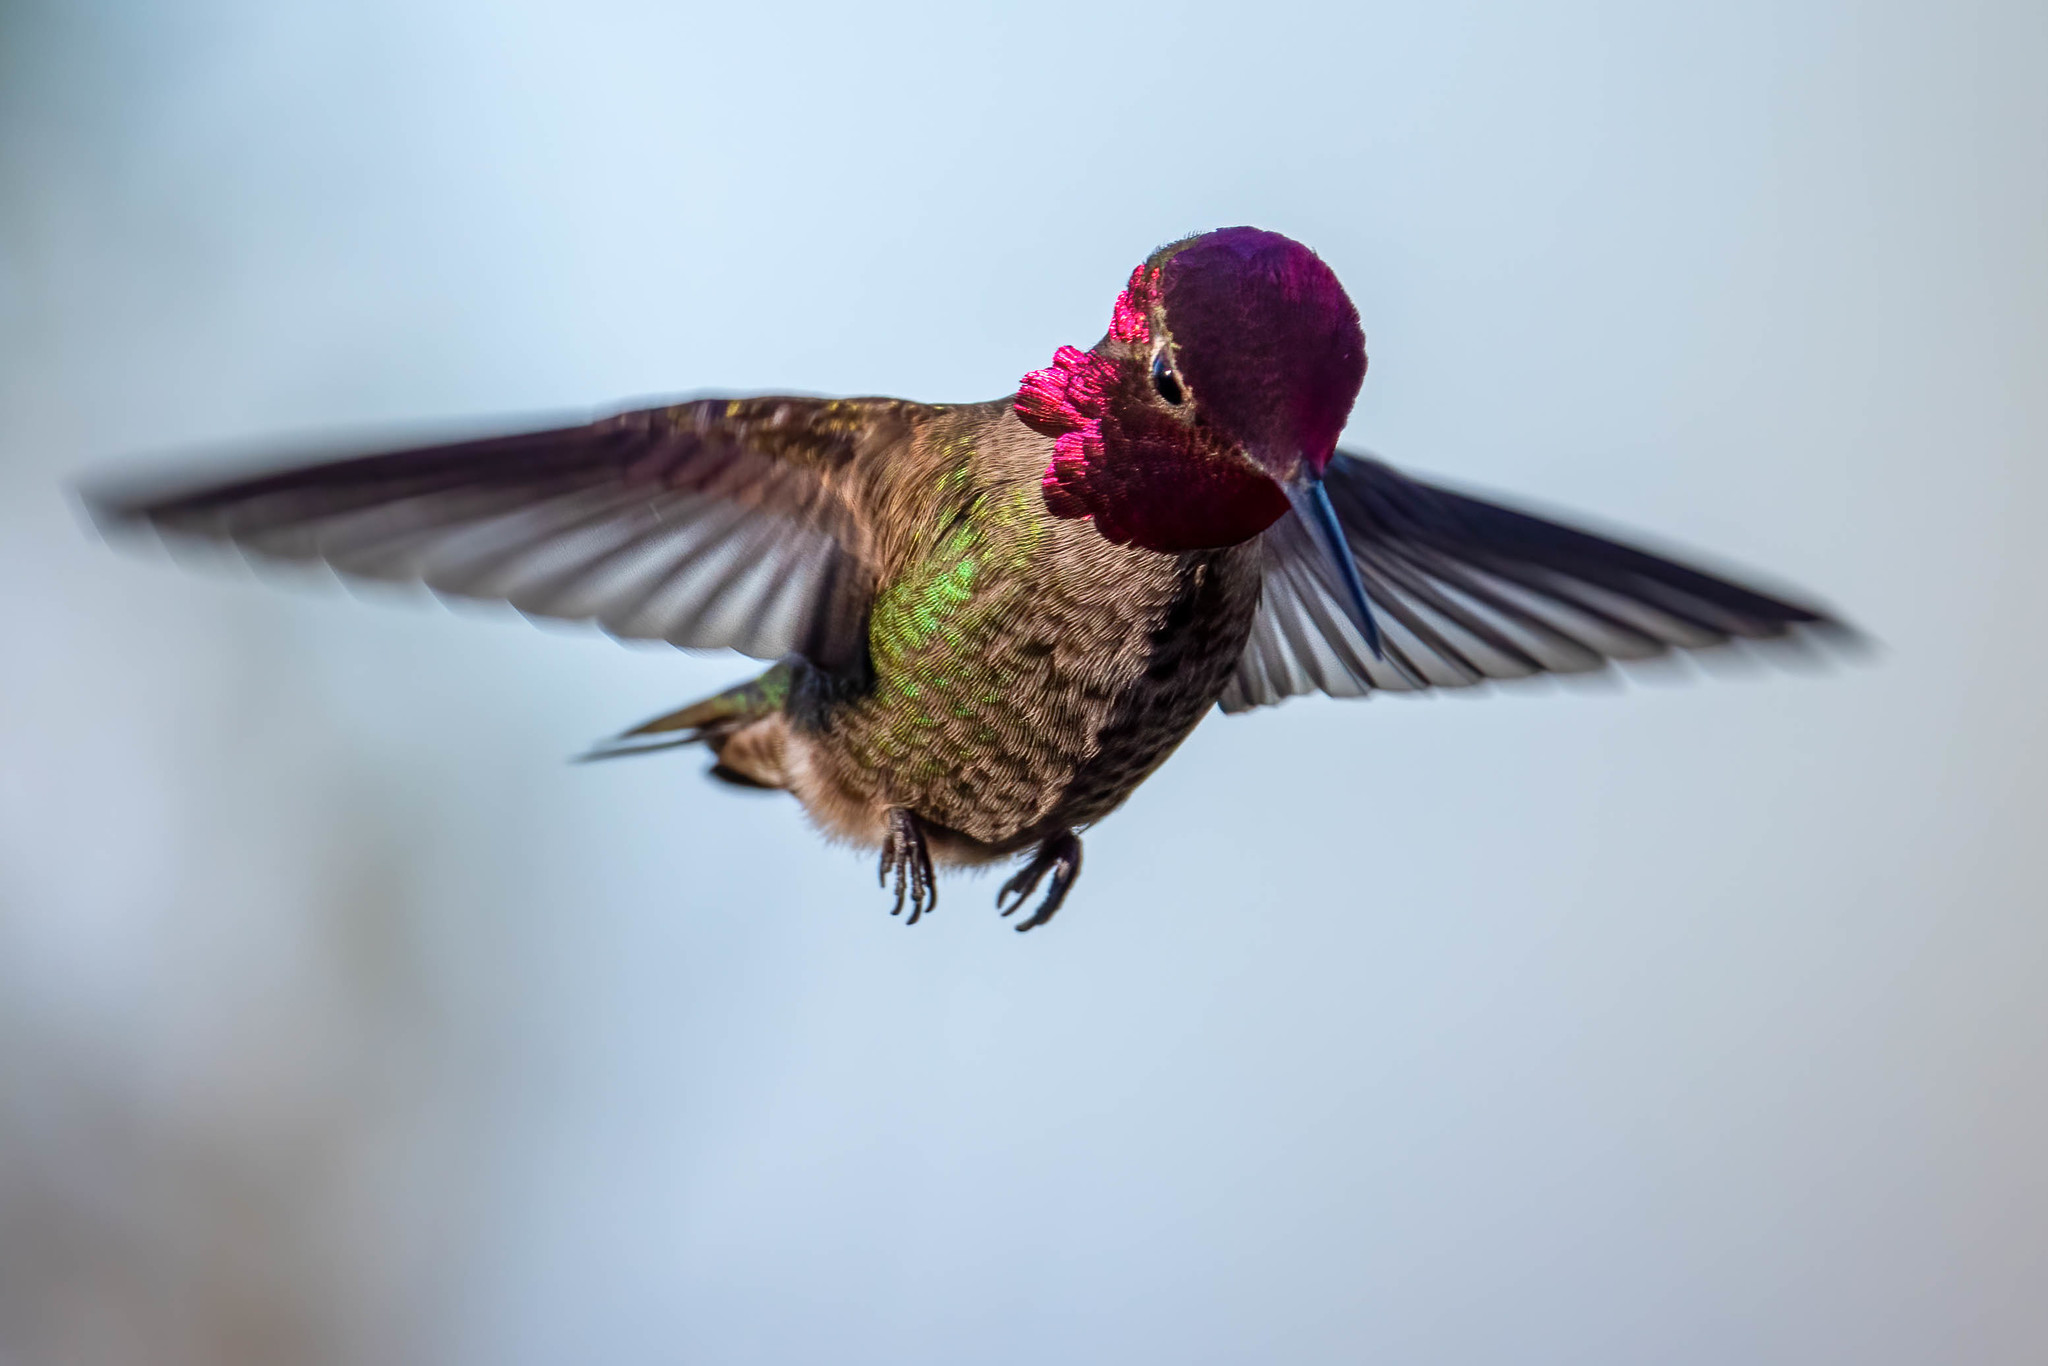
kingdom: Animalia
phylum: Chordata
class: Aves
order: Apodiformes
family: Trochilidae
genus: Calypte
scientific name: Calypte anna
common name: Anna's hummingbird
